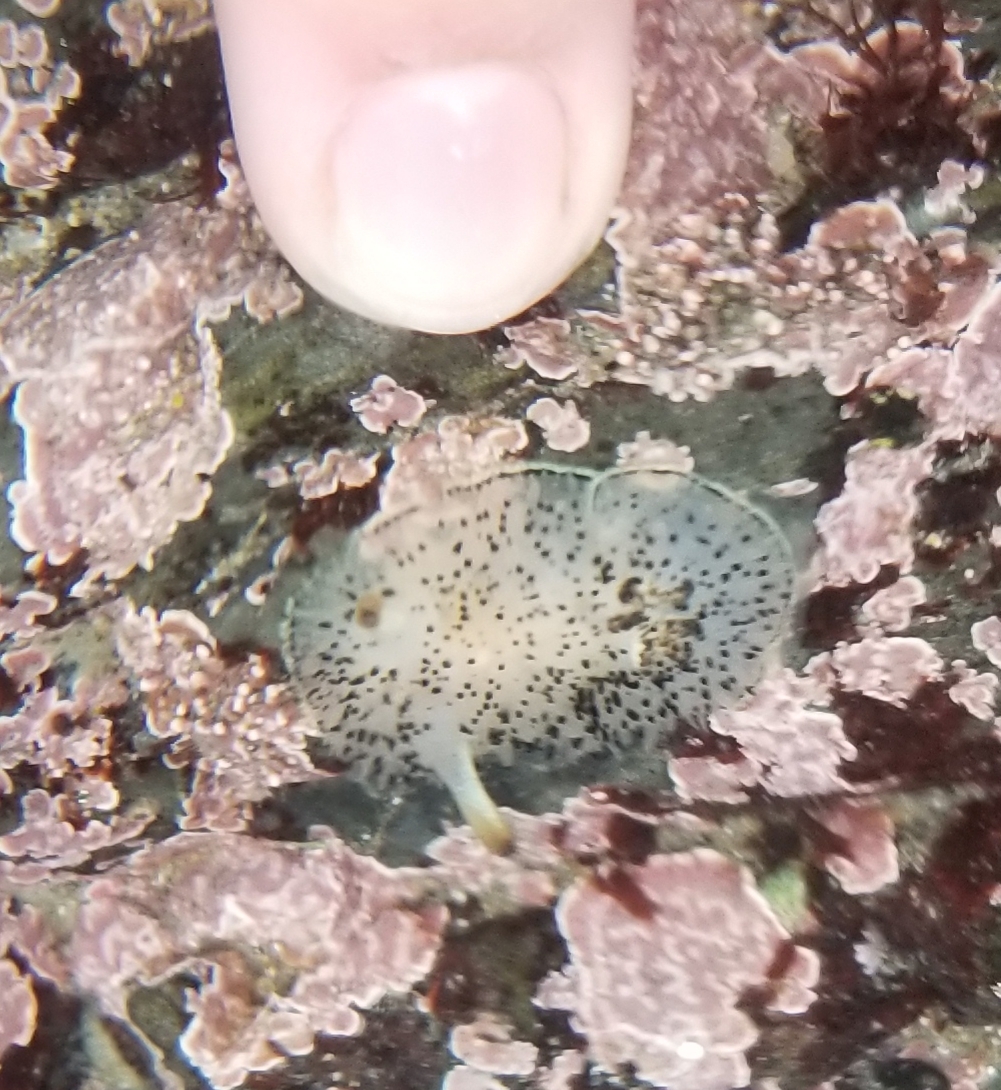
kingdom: Animalia
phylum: Mollusca
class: Gastropoda
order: Nudibranchia
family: Onchidorididae
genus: Acanthodoris
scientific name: Acanthodoris rhodoceras
